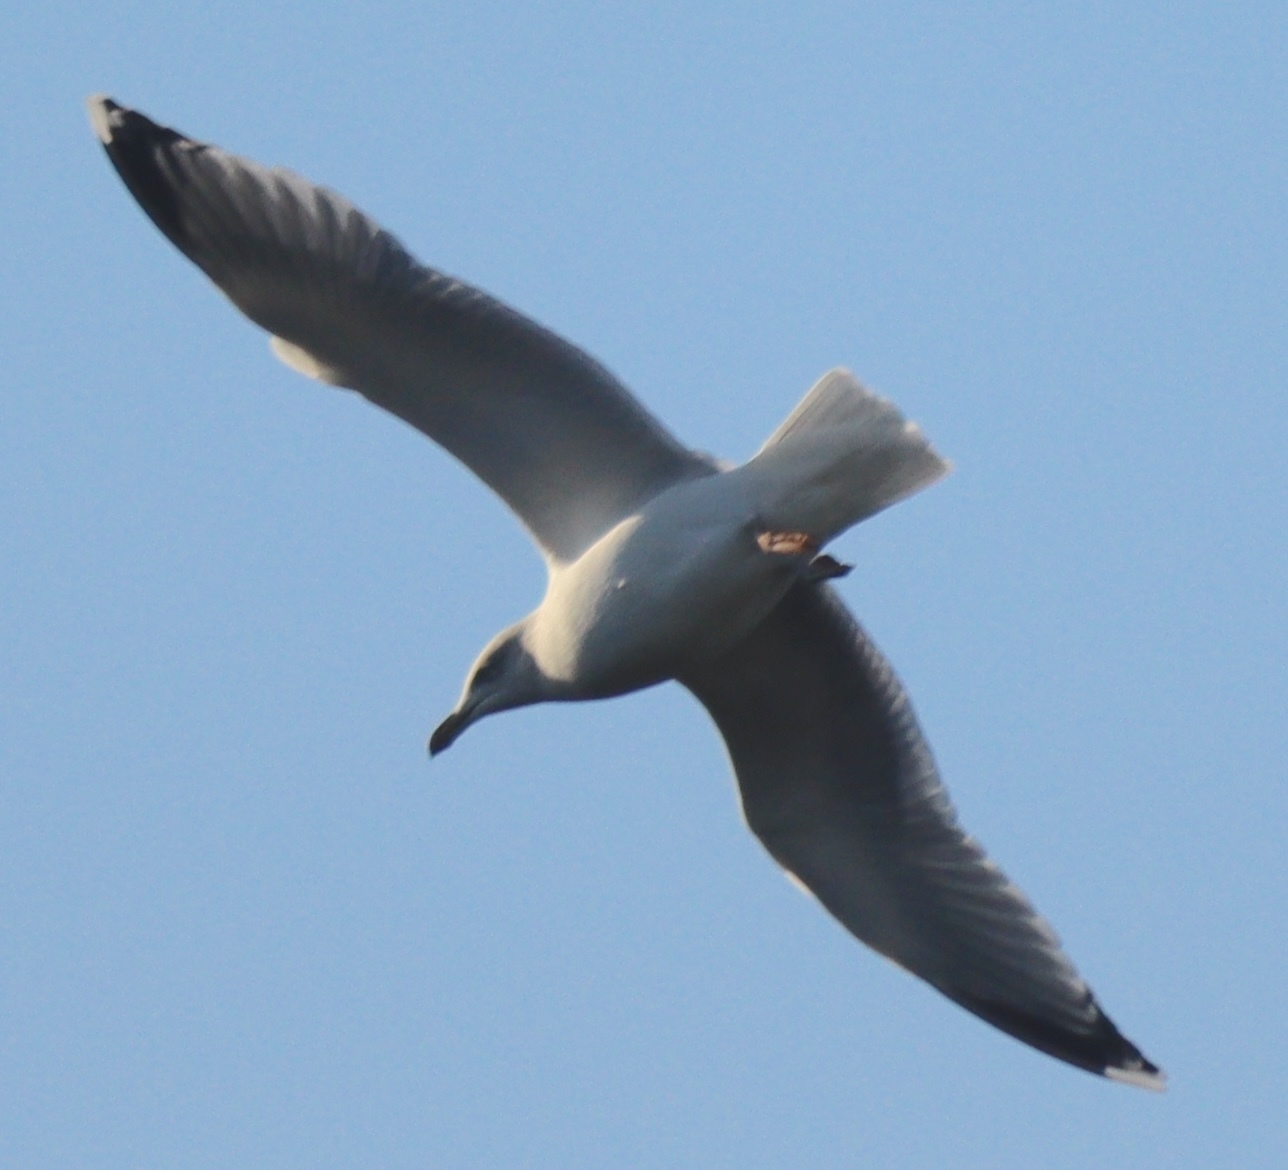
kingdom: Animalia
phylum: Chordata
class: Aves
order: Charadriiformes
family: Laridae
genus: Larus
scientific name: Larus argentatus
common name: Herring gull
